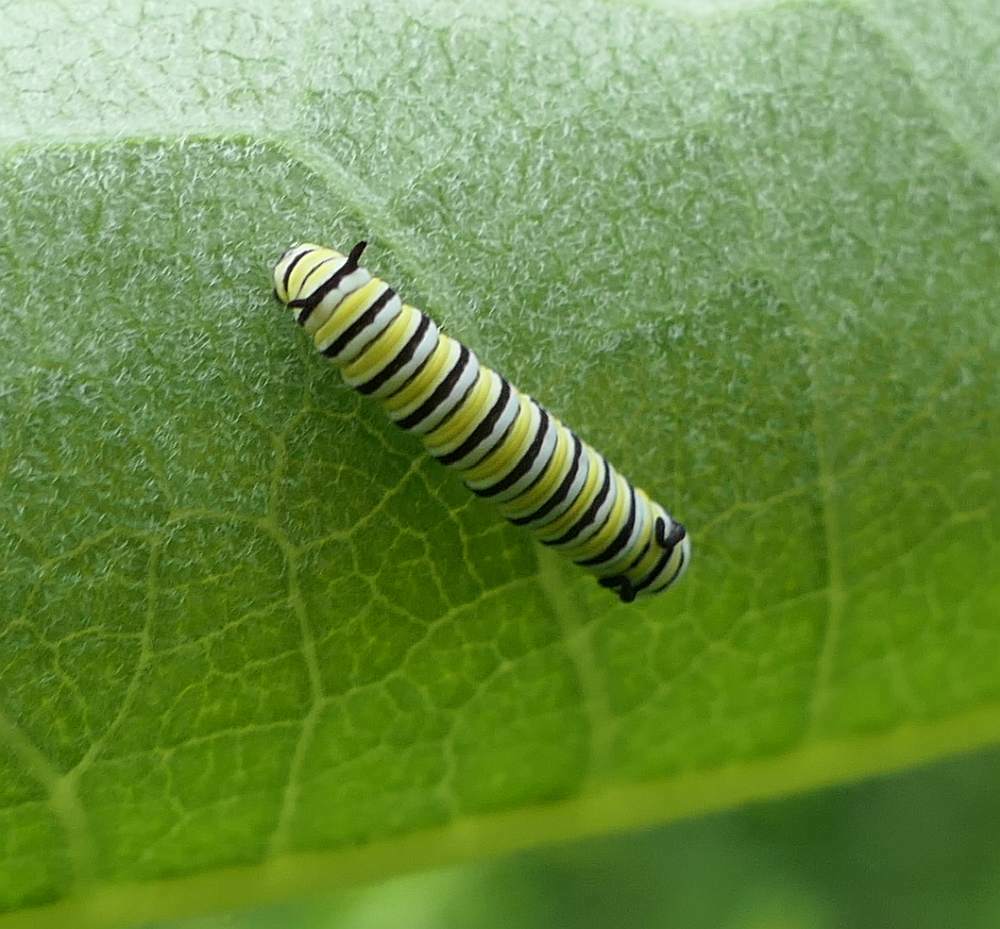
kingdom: Animalia
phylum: Arthropoda
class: Insecta
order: Lepidoptera
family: Nymphalidae
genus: Danaus
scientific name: Danaus plexippus
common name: Monarch
